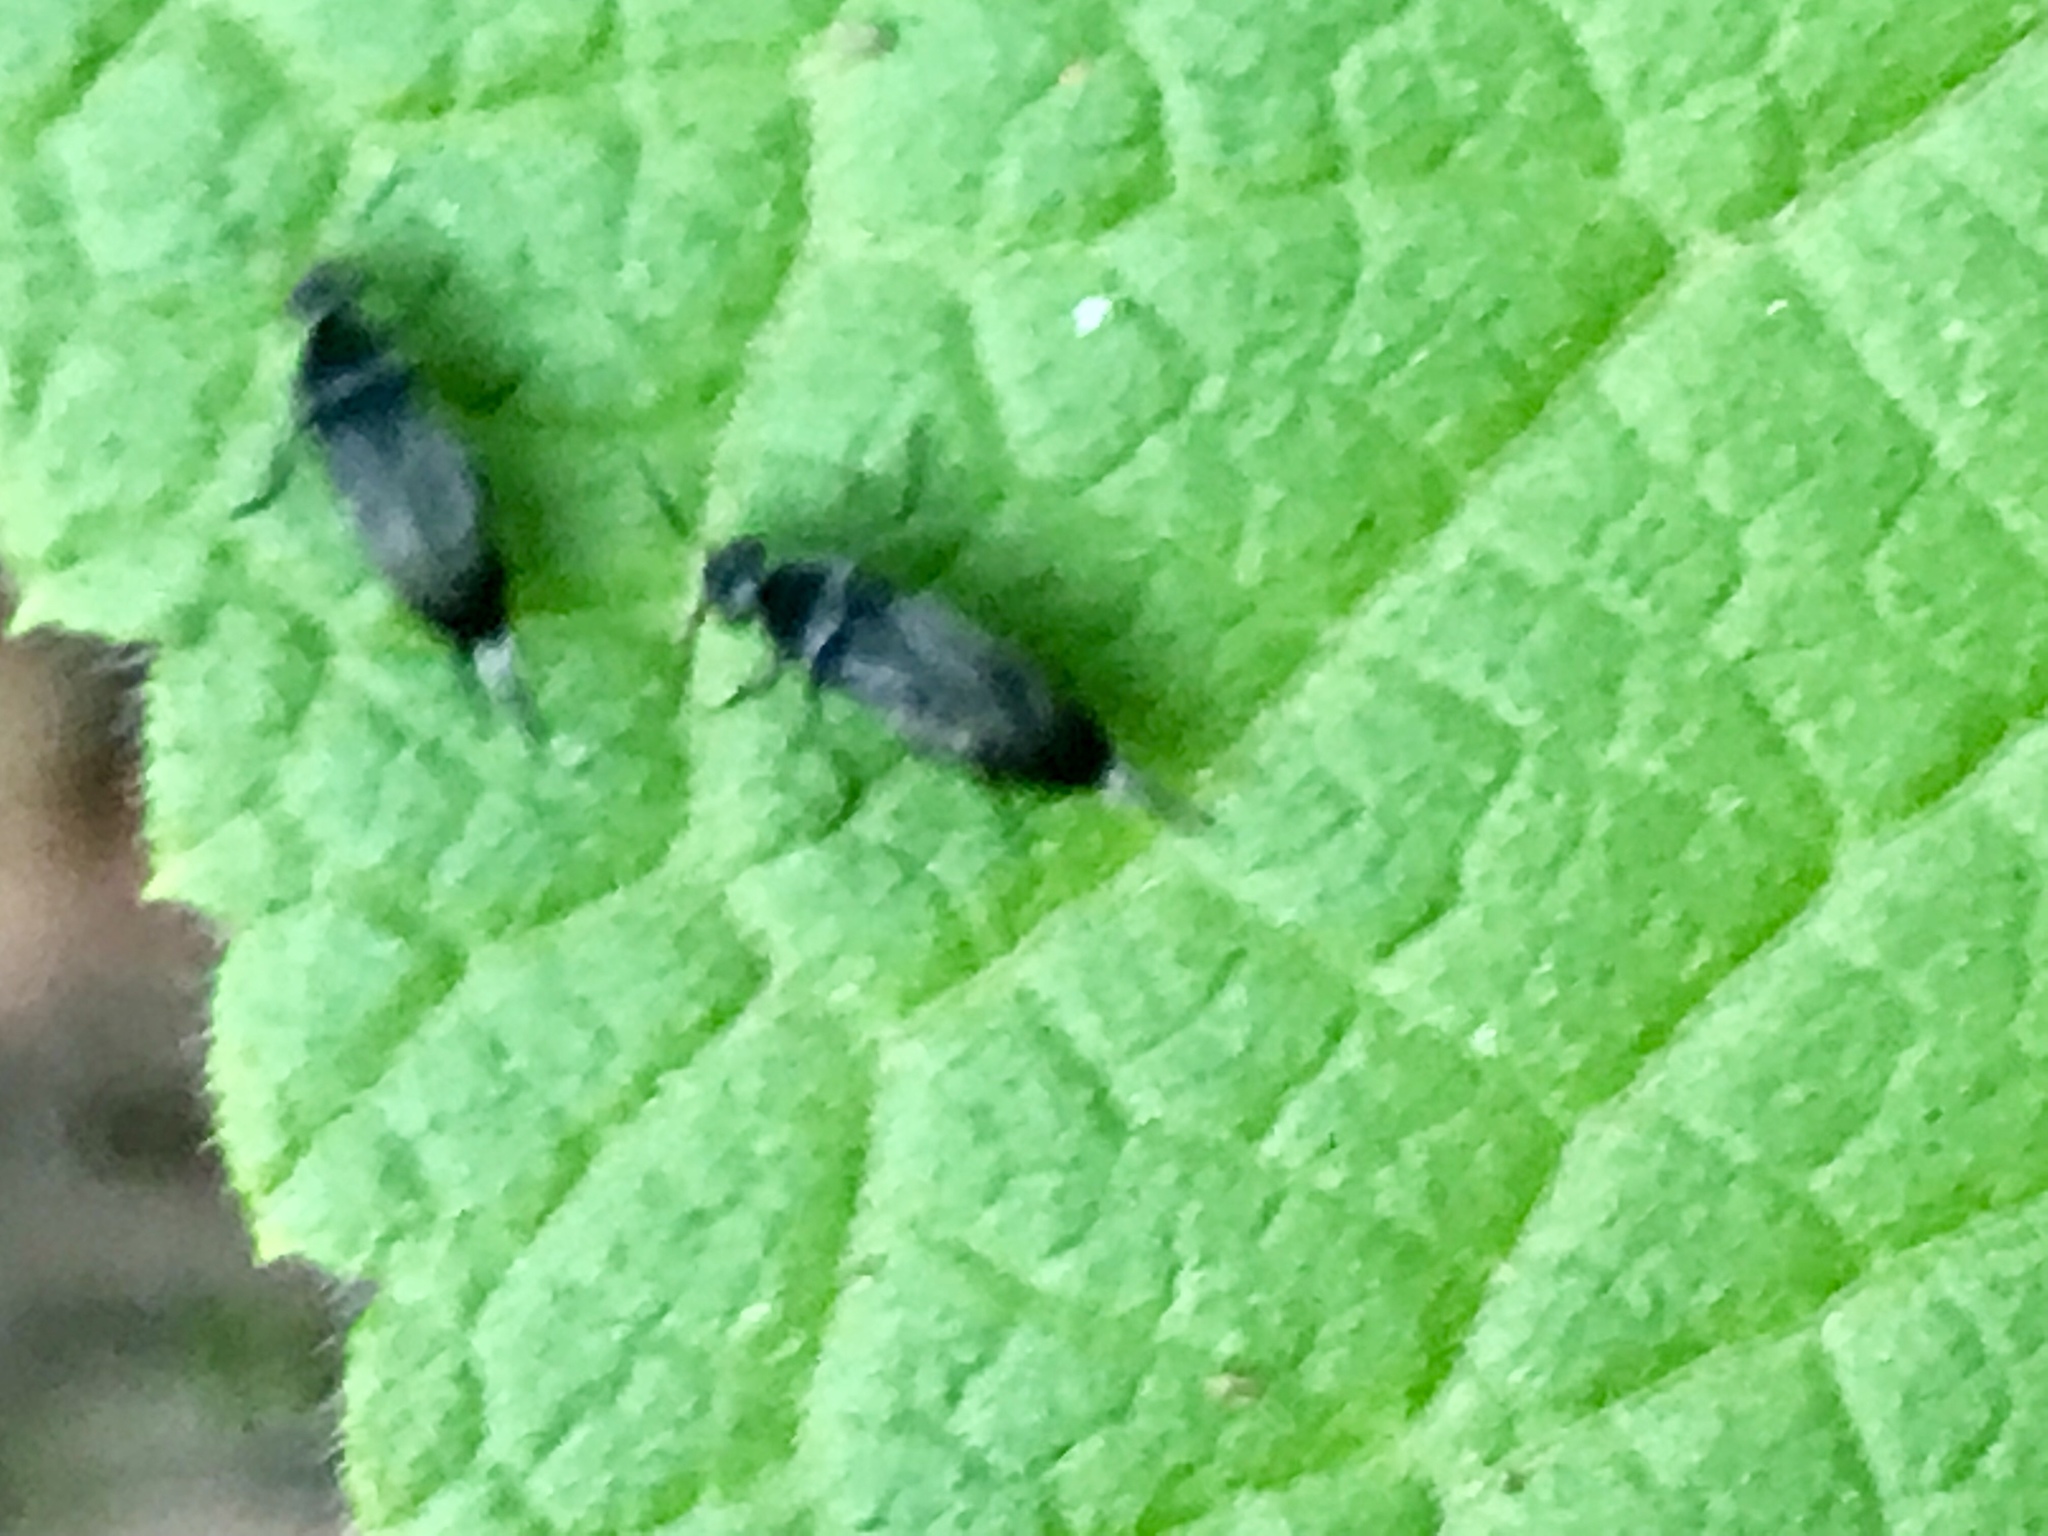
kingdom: Plantae
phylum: Tracheophyta
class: Magnoliopsida
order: Asterales
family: Asteraceae
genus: Greenmaniella
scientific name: Greenmaniella resinosa
